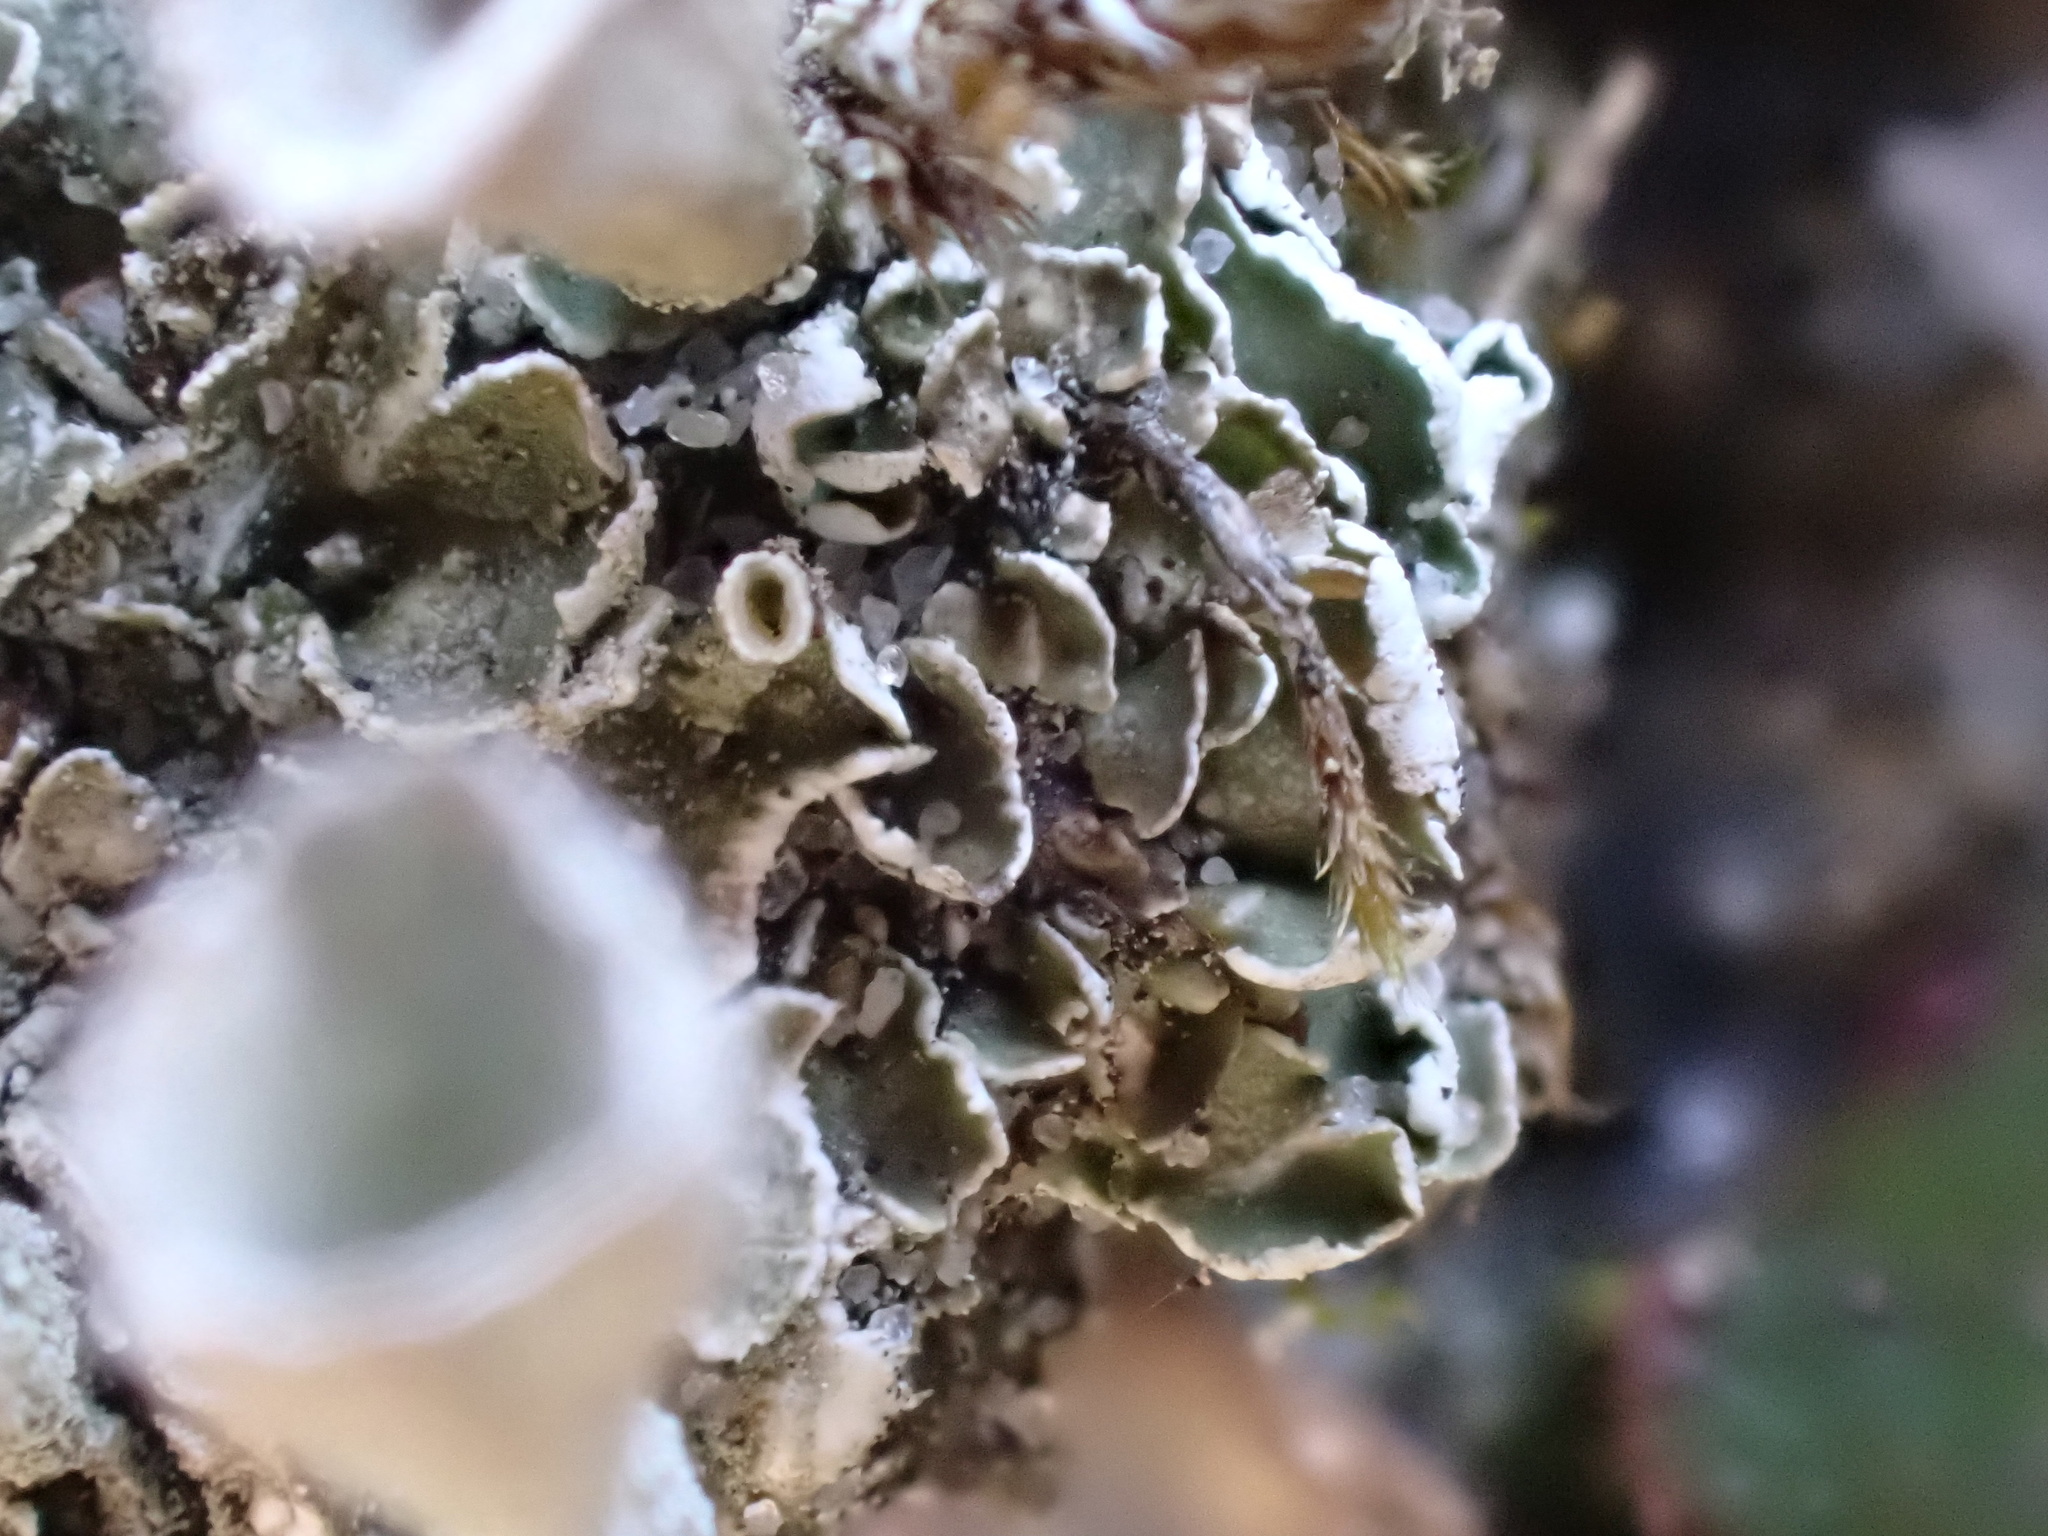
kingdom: Fungi
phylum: Ascomycota
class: Lecanoromycetes
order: Lecanorales
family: Cladoniaceae
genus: Cladonia
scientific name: Cladonia humilis
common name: Humble pixie-cup lichen
